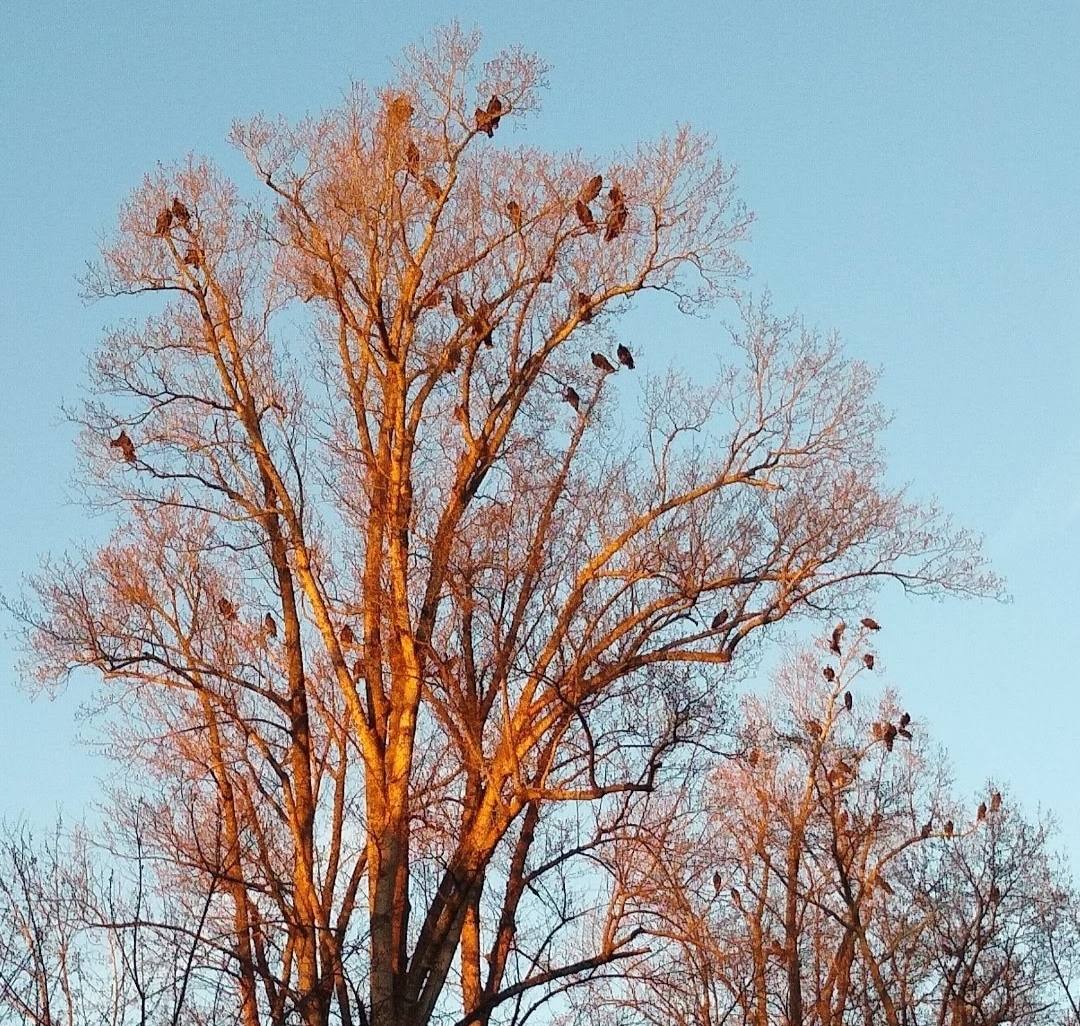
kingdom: Animalia
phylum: Chordata
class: Aves
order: Accipitriformes
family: Cathartidae
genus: Cathartes
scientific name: Cathartes aura
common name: Turkey vulture
